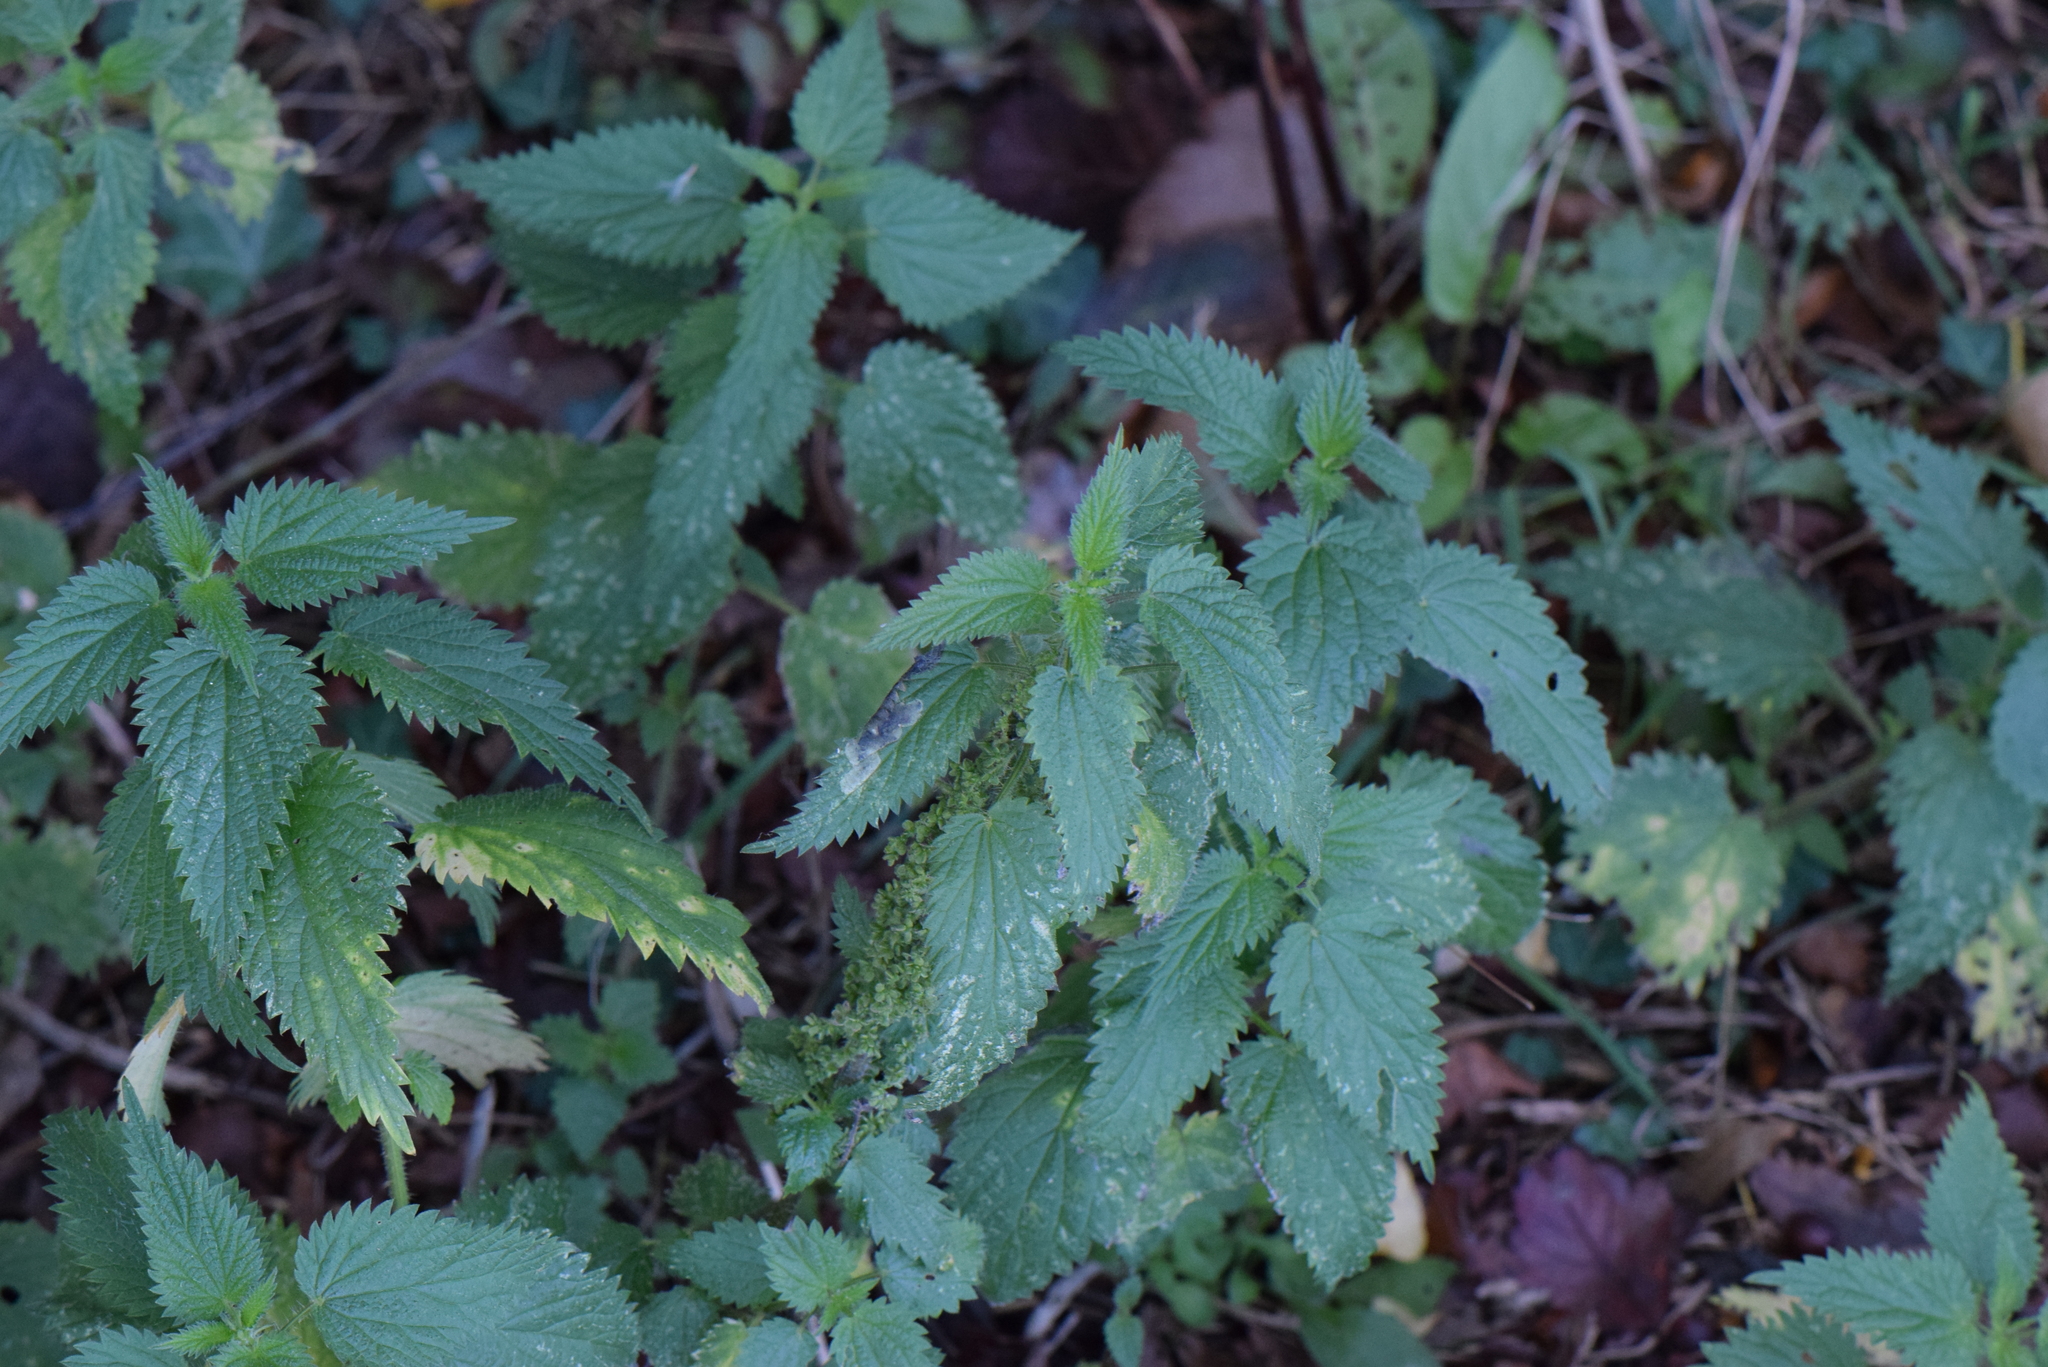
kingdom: Plantae
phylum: Tracheophyta
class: Magnoliopsida
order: Rosales
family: Urticaceae
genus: Urtica
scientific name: Urtica dioica
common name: Common nettle
